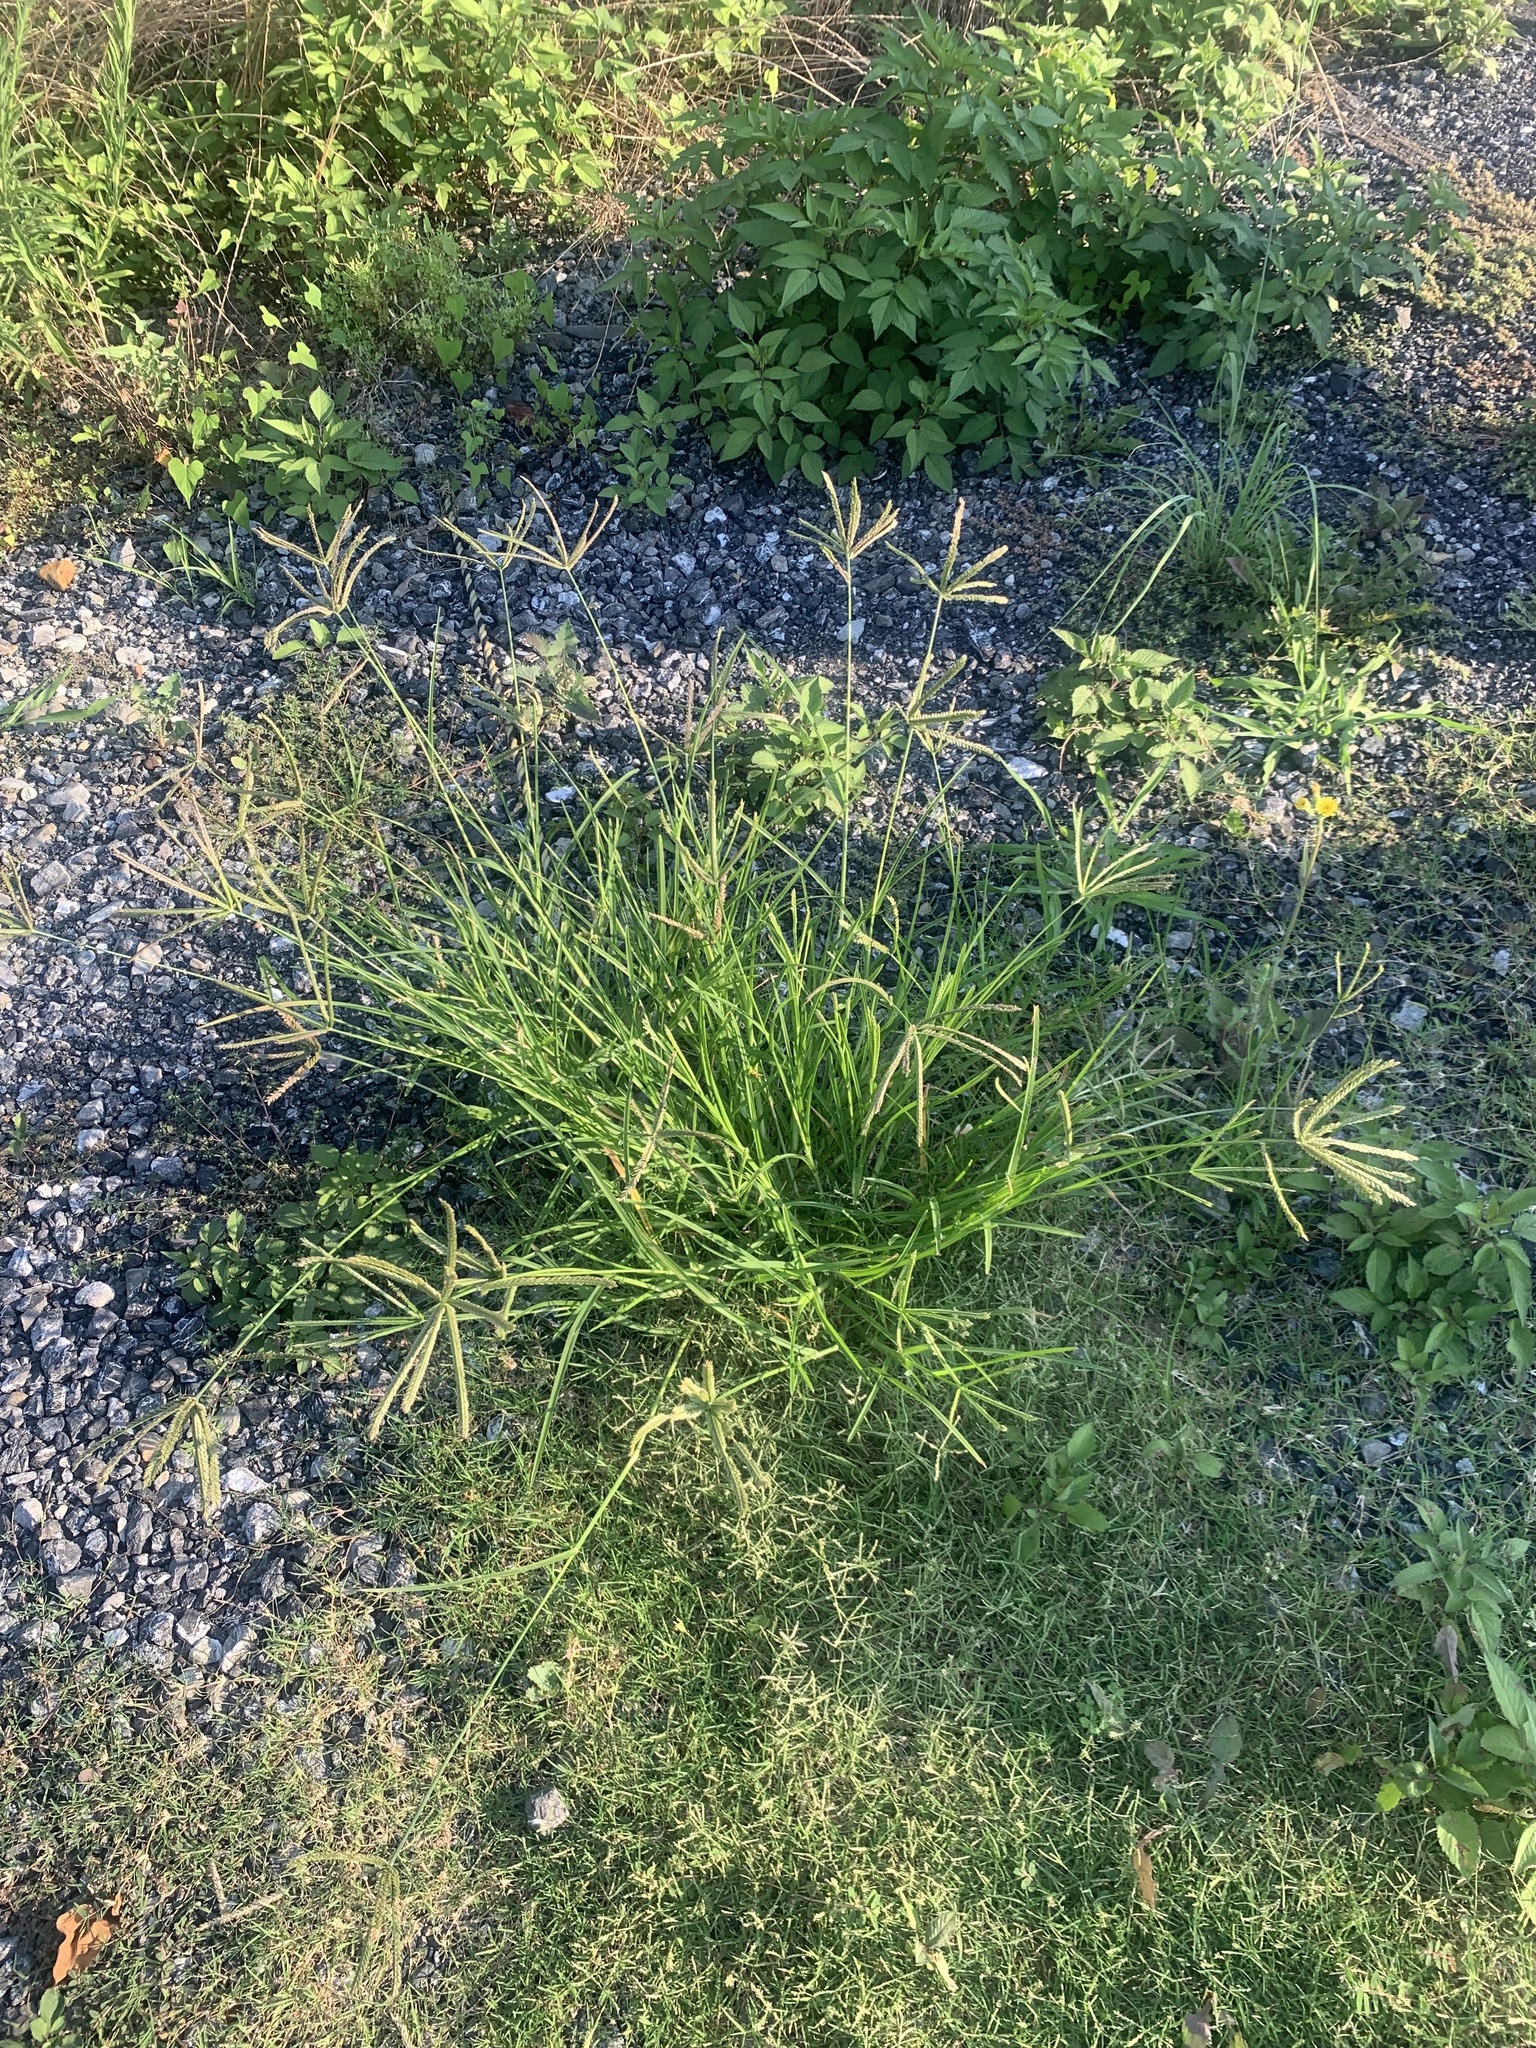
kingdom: Plantae
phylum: Tracheophyta
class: Liliopsida
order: Poales
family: Poaceae
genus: Eleusine
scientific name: Eleusine indica
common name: Yard-grass
